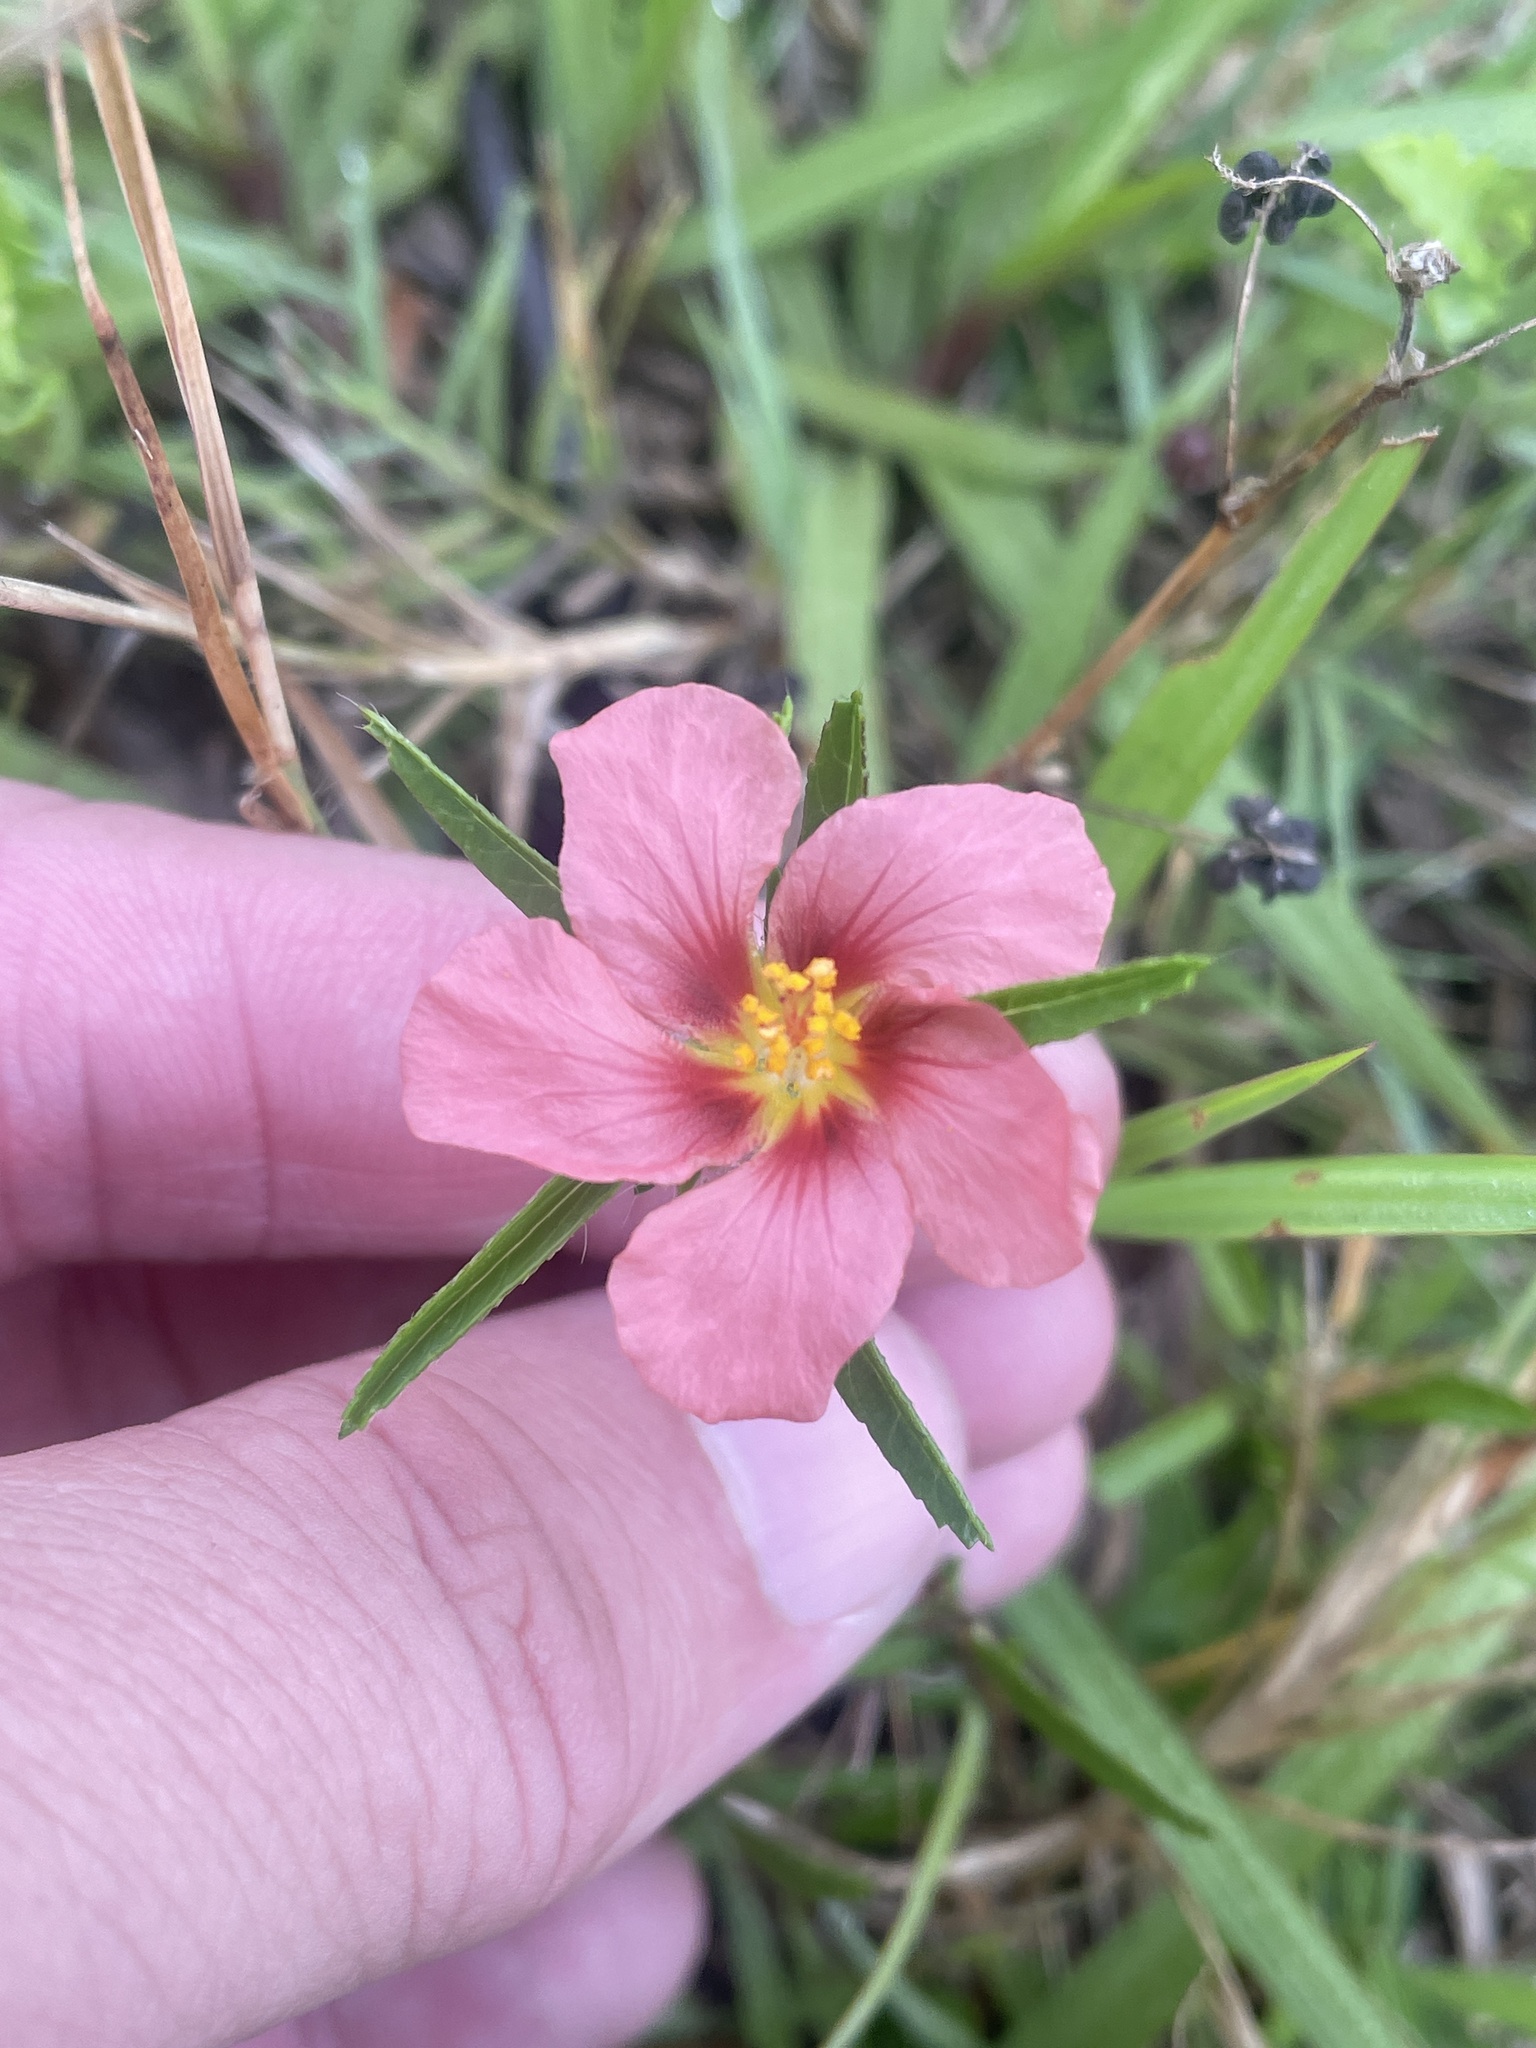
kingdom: Plantae
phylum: Tracheophyta
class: Magnoliopsida
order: Malvales
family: Malvaceae
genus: Sida
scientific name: Sida ciliaris
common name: Bracted fanpetals
